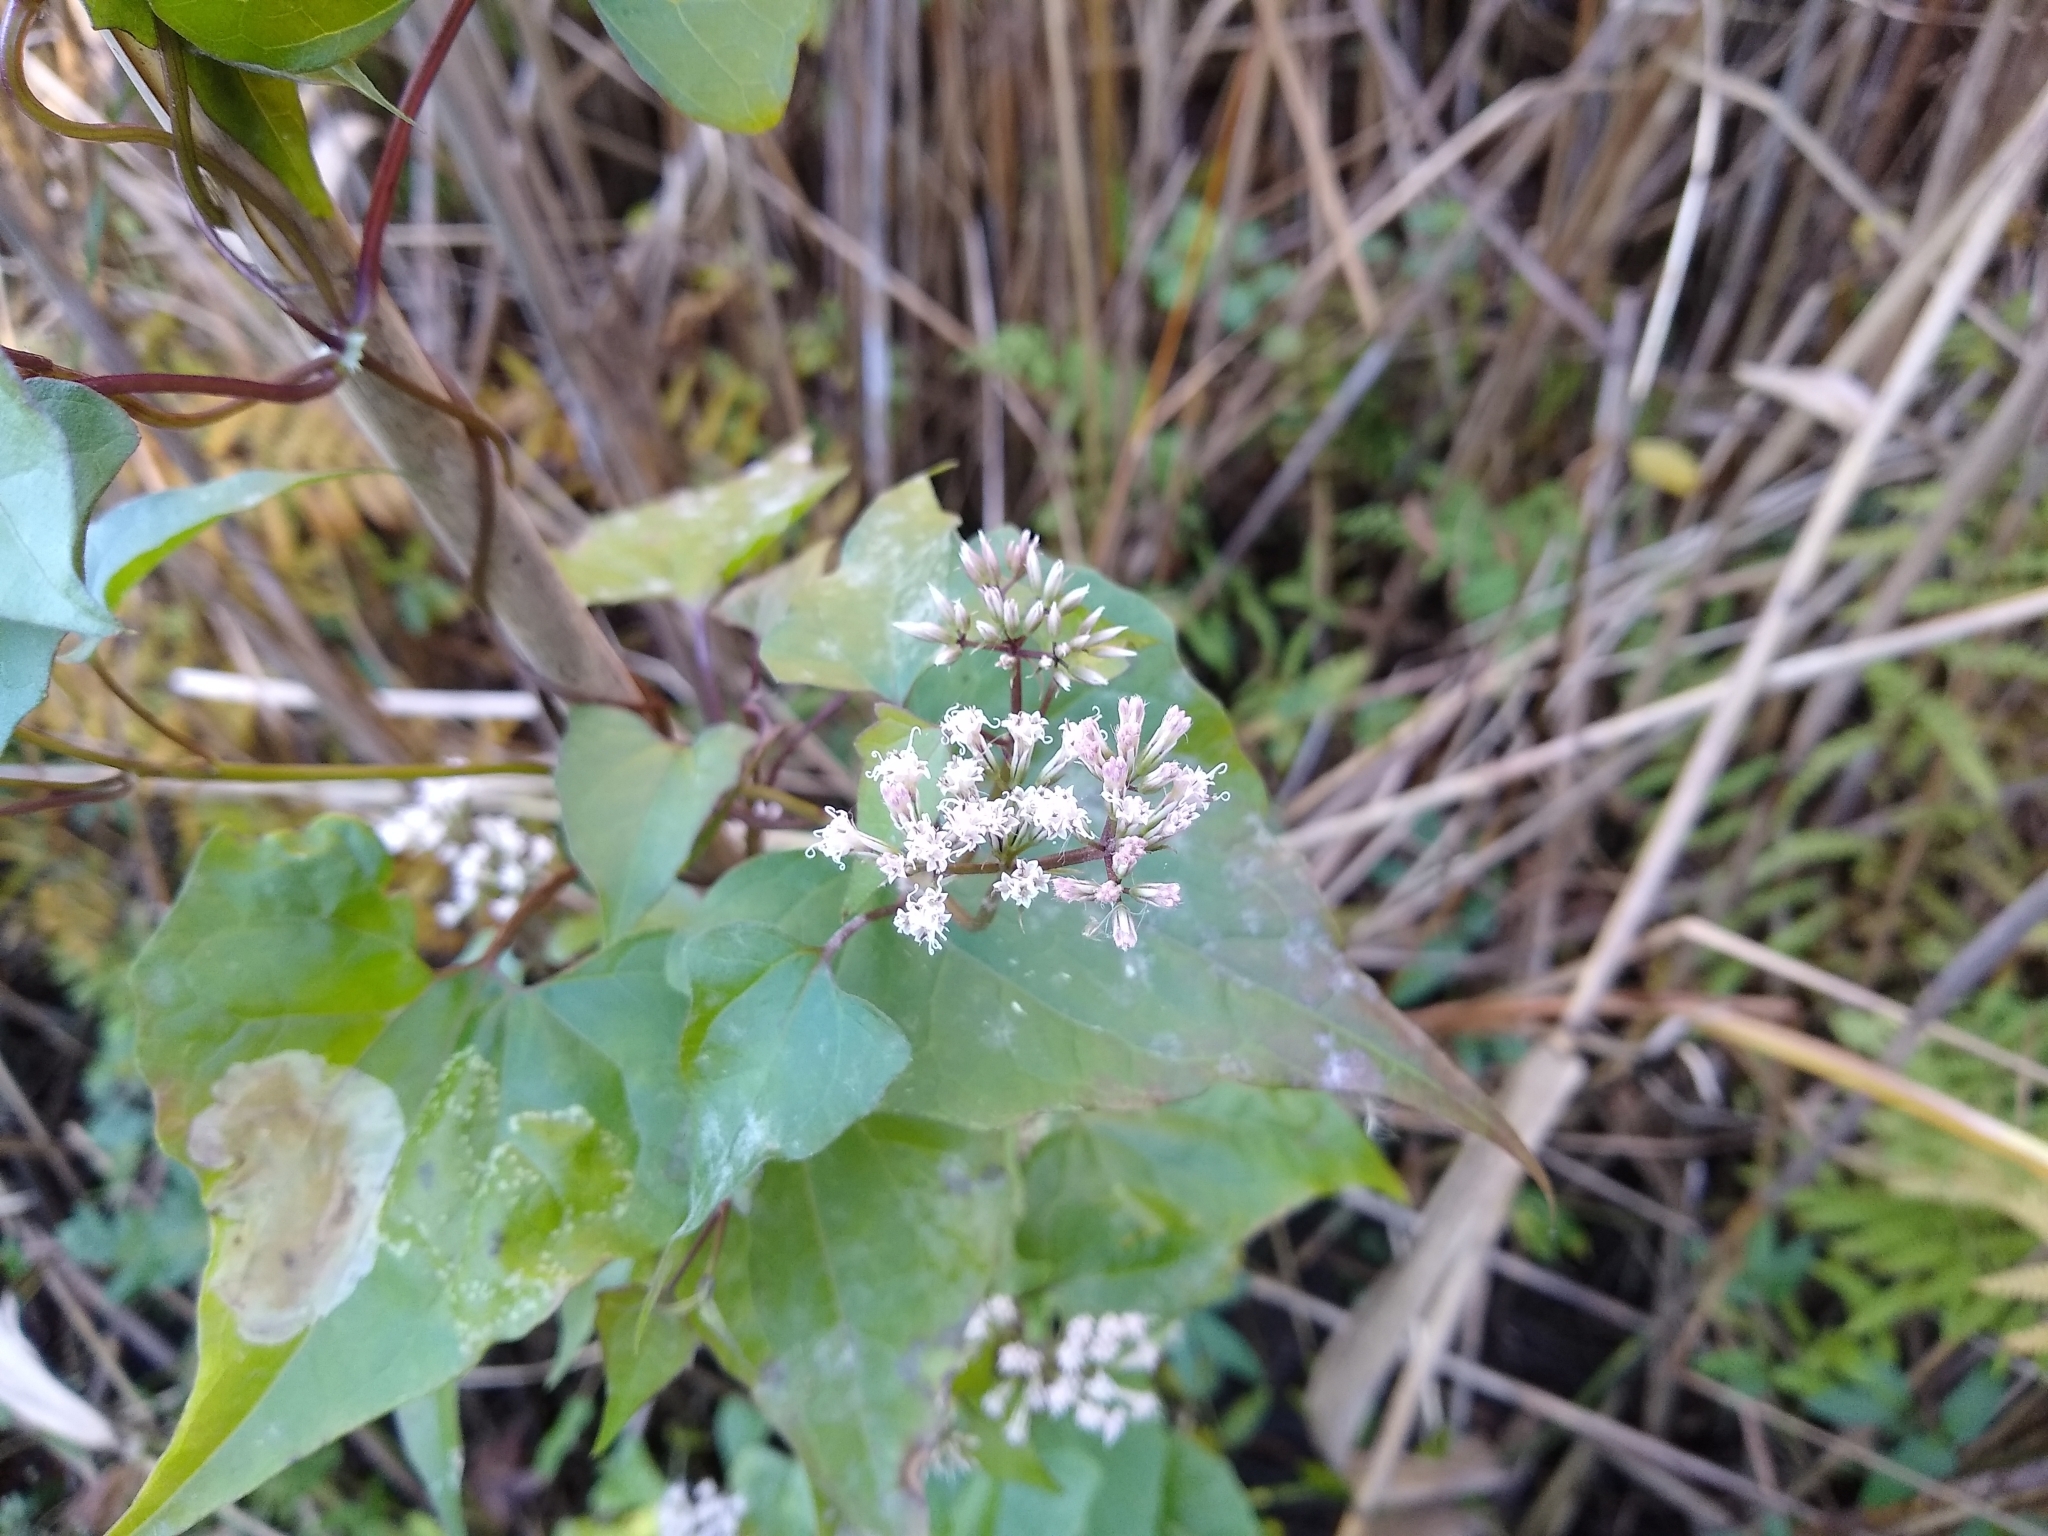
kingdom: Plantae
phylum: Tracheophyta
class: Magnoliopsida
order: Asterales
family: Asteraceae
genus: Mikania
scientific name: Mikania scandens
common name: Climbing hempvine
